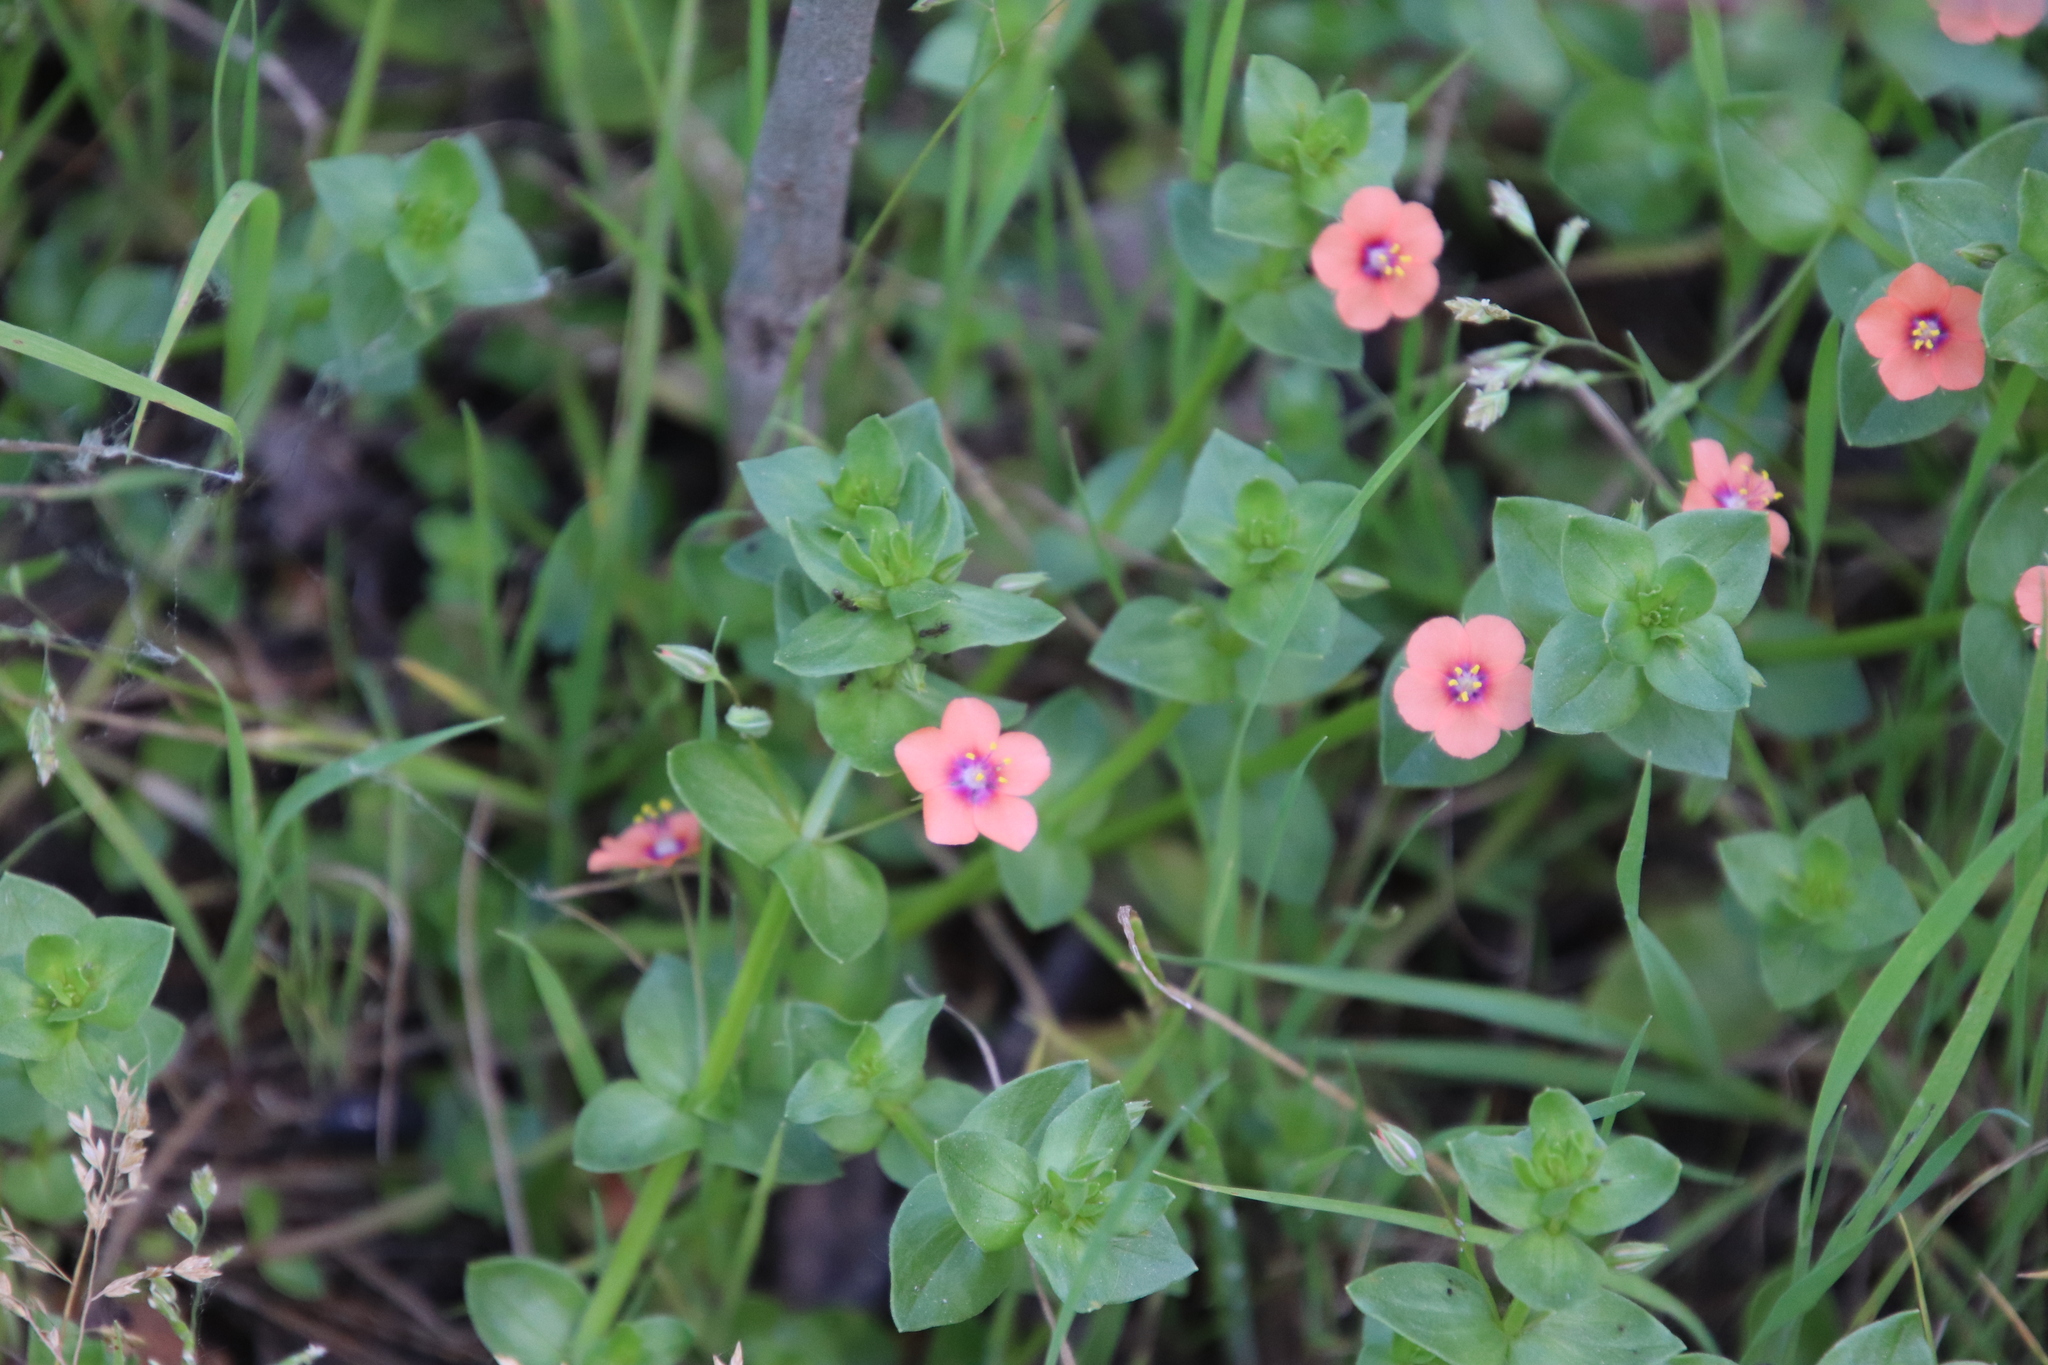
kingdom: Plantae
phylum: Tracheophyta
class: Magnoliopsida
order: Ericales
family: Primulaceae
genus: Lysimachia
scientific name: Lysimachia arvensis
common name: Scarlet pimpernel
